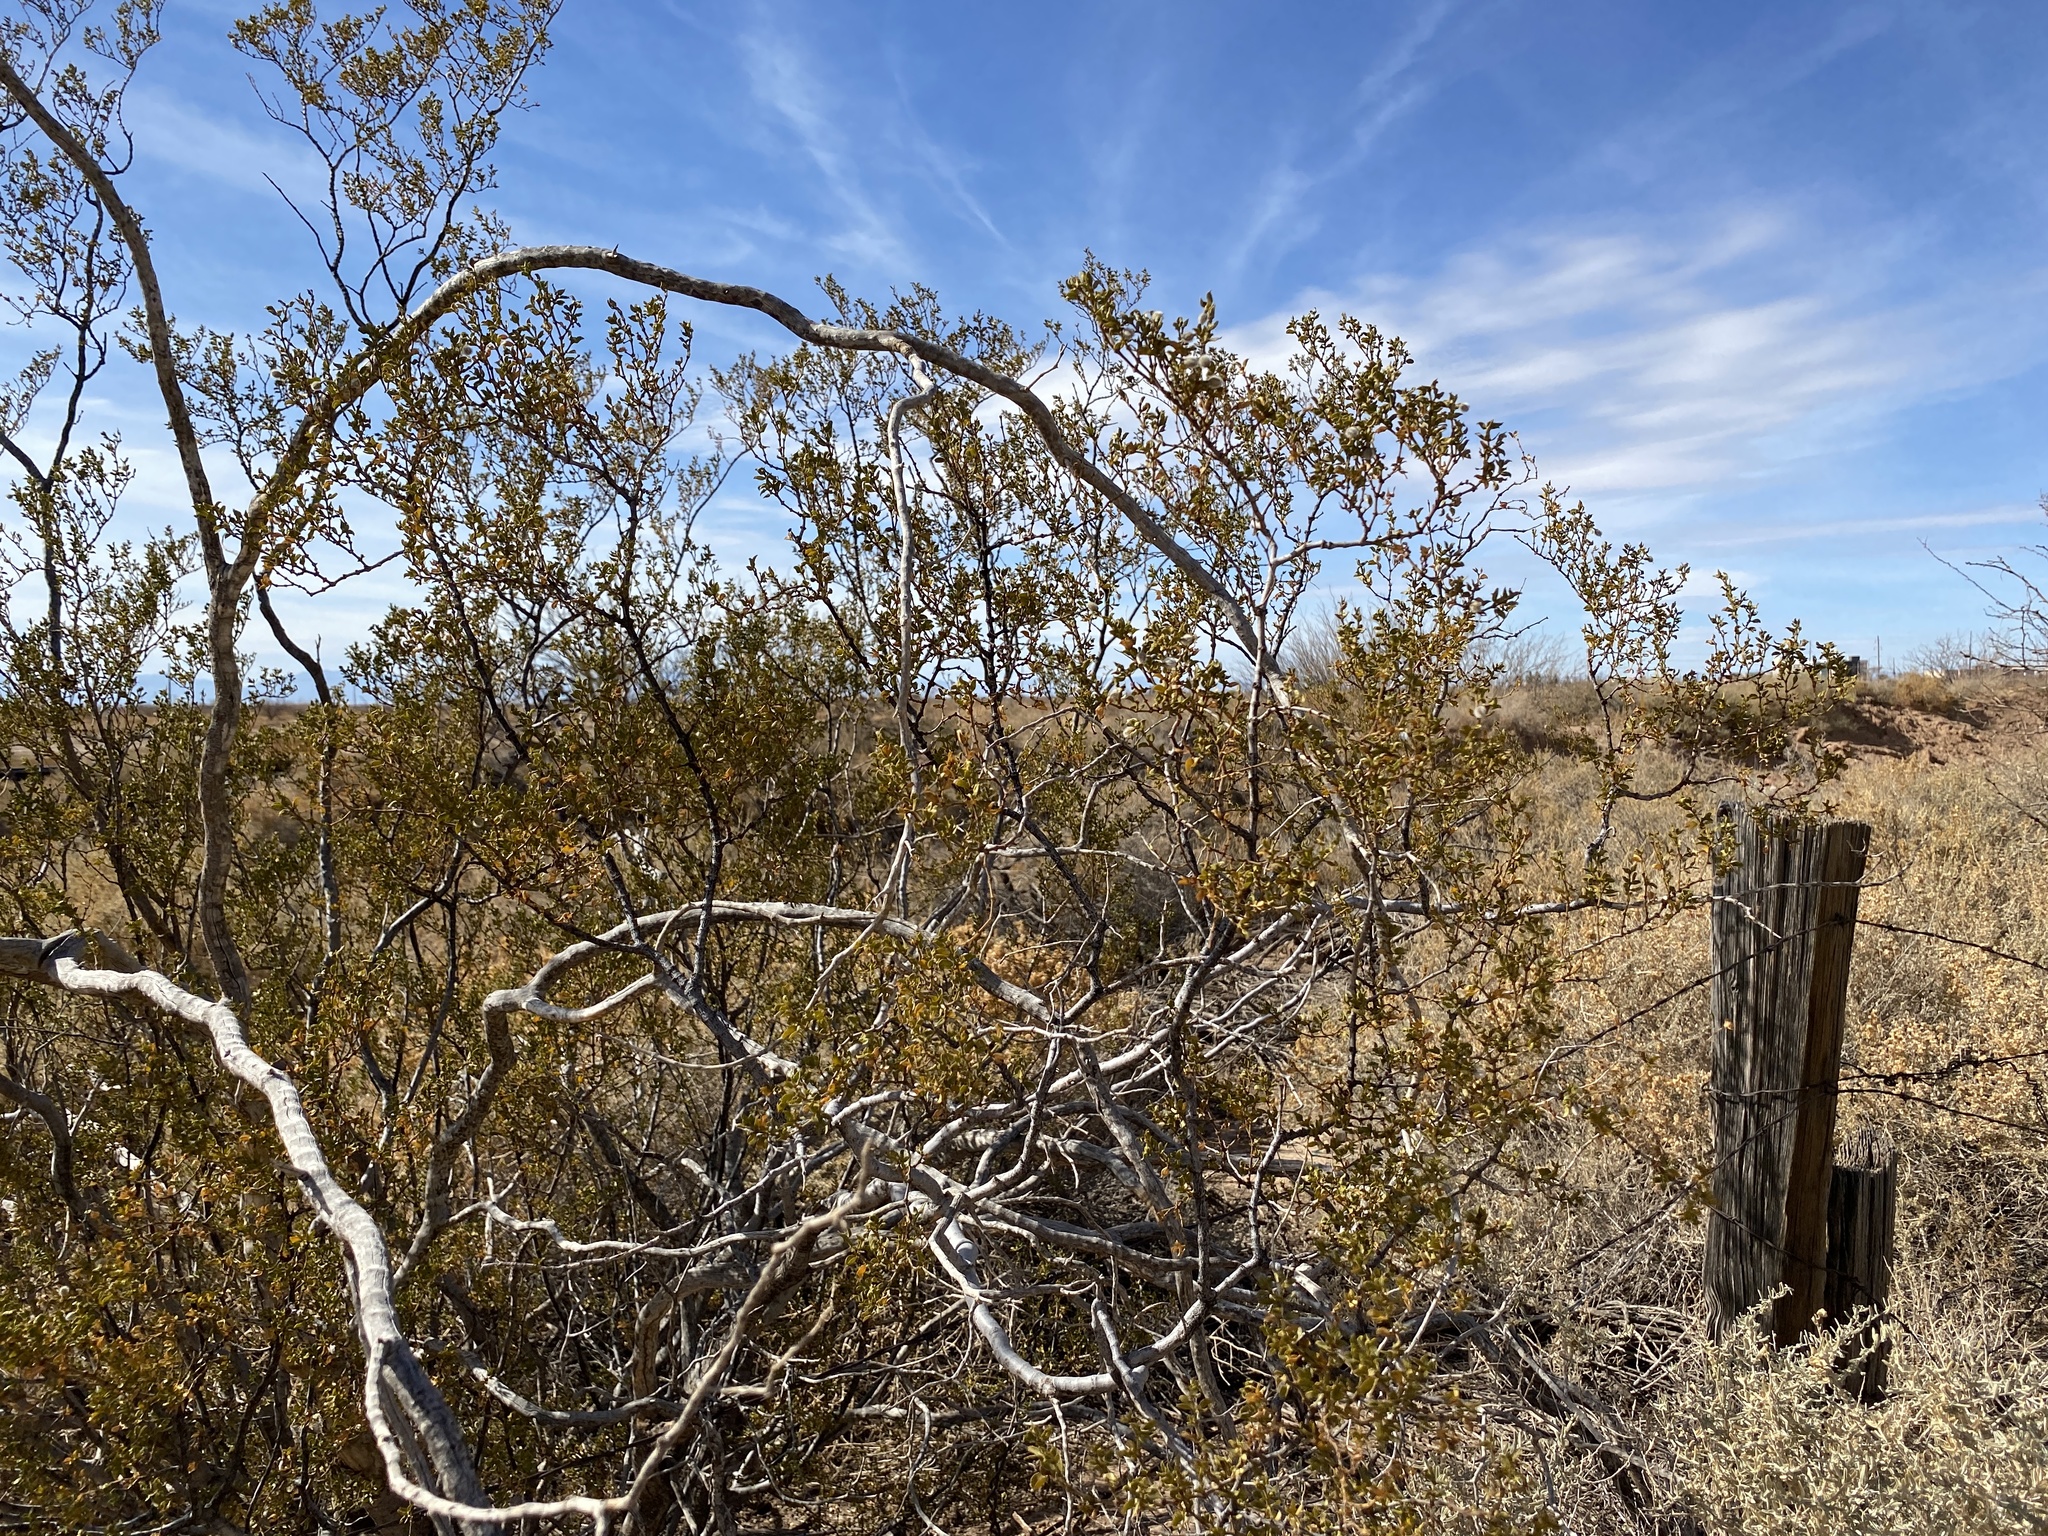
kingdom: Plantae
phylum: Tracheophyta
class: Magnoliopsida
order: Zygophyllales
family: Zygophyllaceae
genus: Larrea
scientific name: Larrea tridentata
